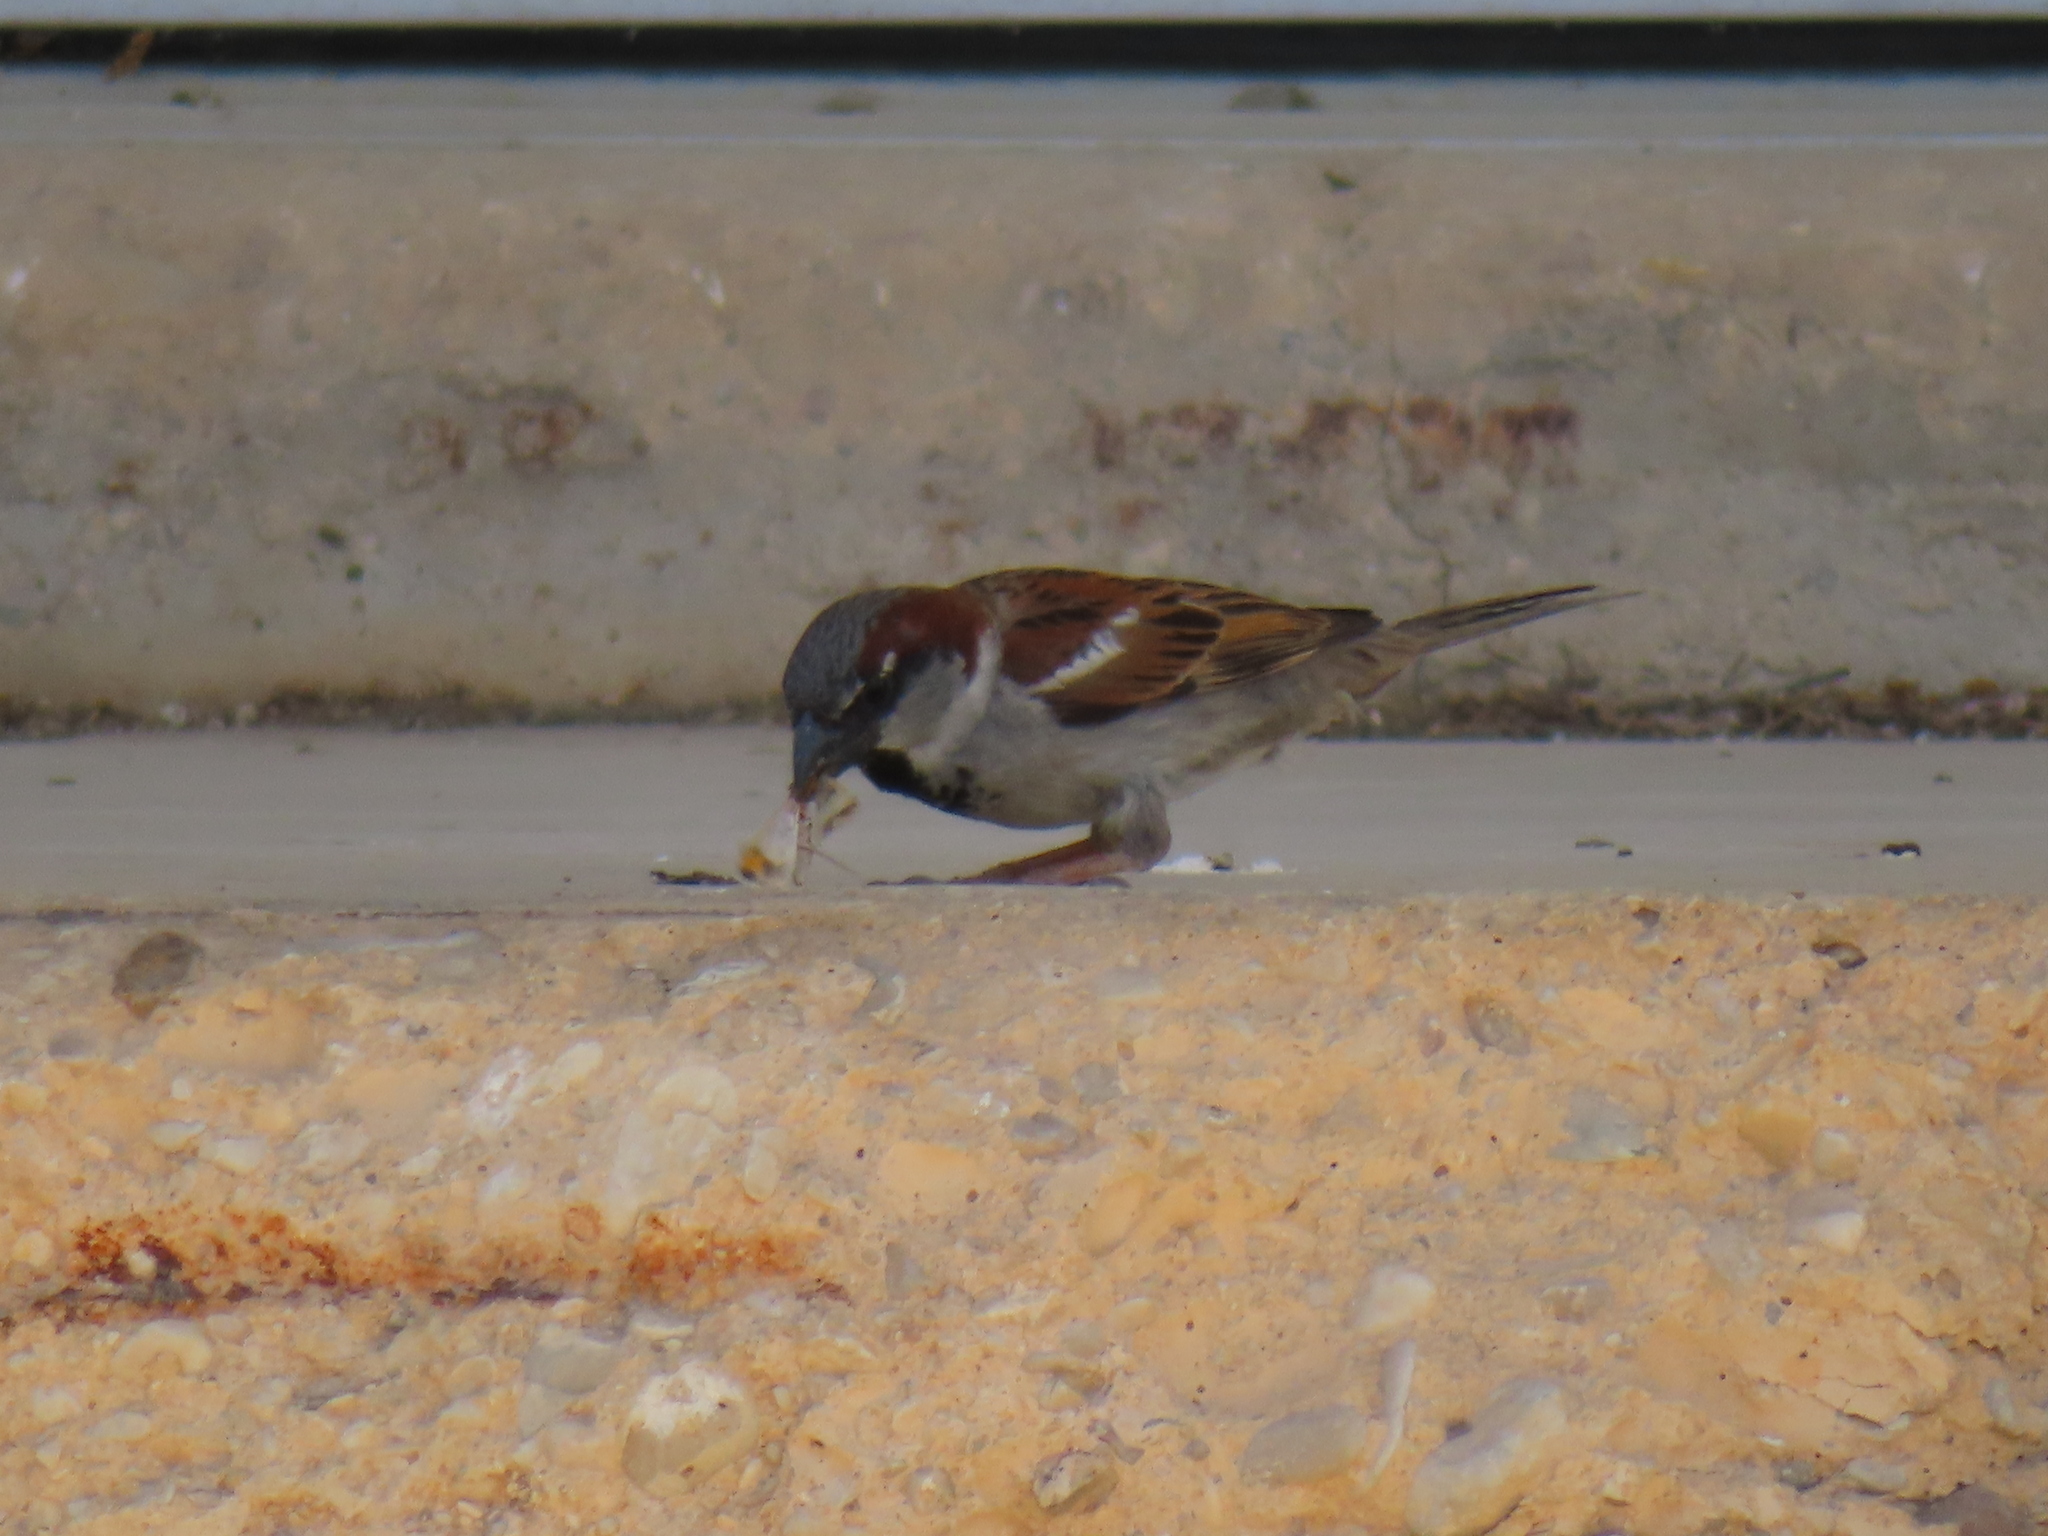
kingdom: Animalia
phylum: Chordata
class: Aves
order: Passeriformes
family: Passeridae
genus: Passer
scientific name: Passer domesticus
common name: House sparrow
